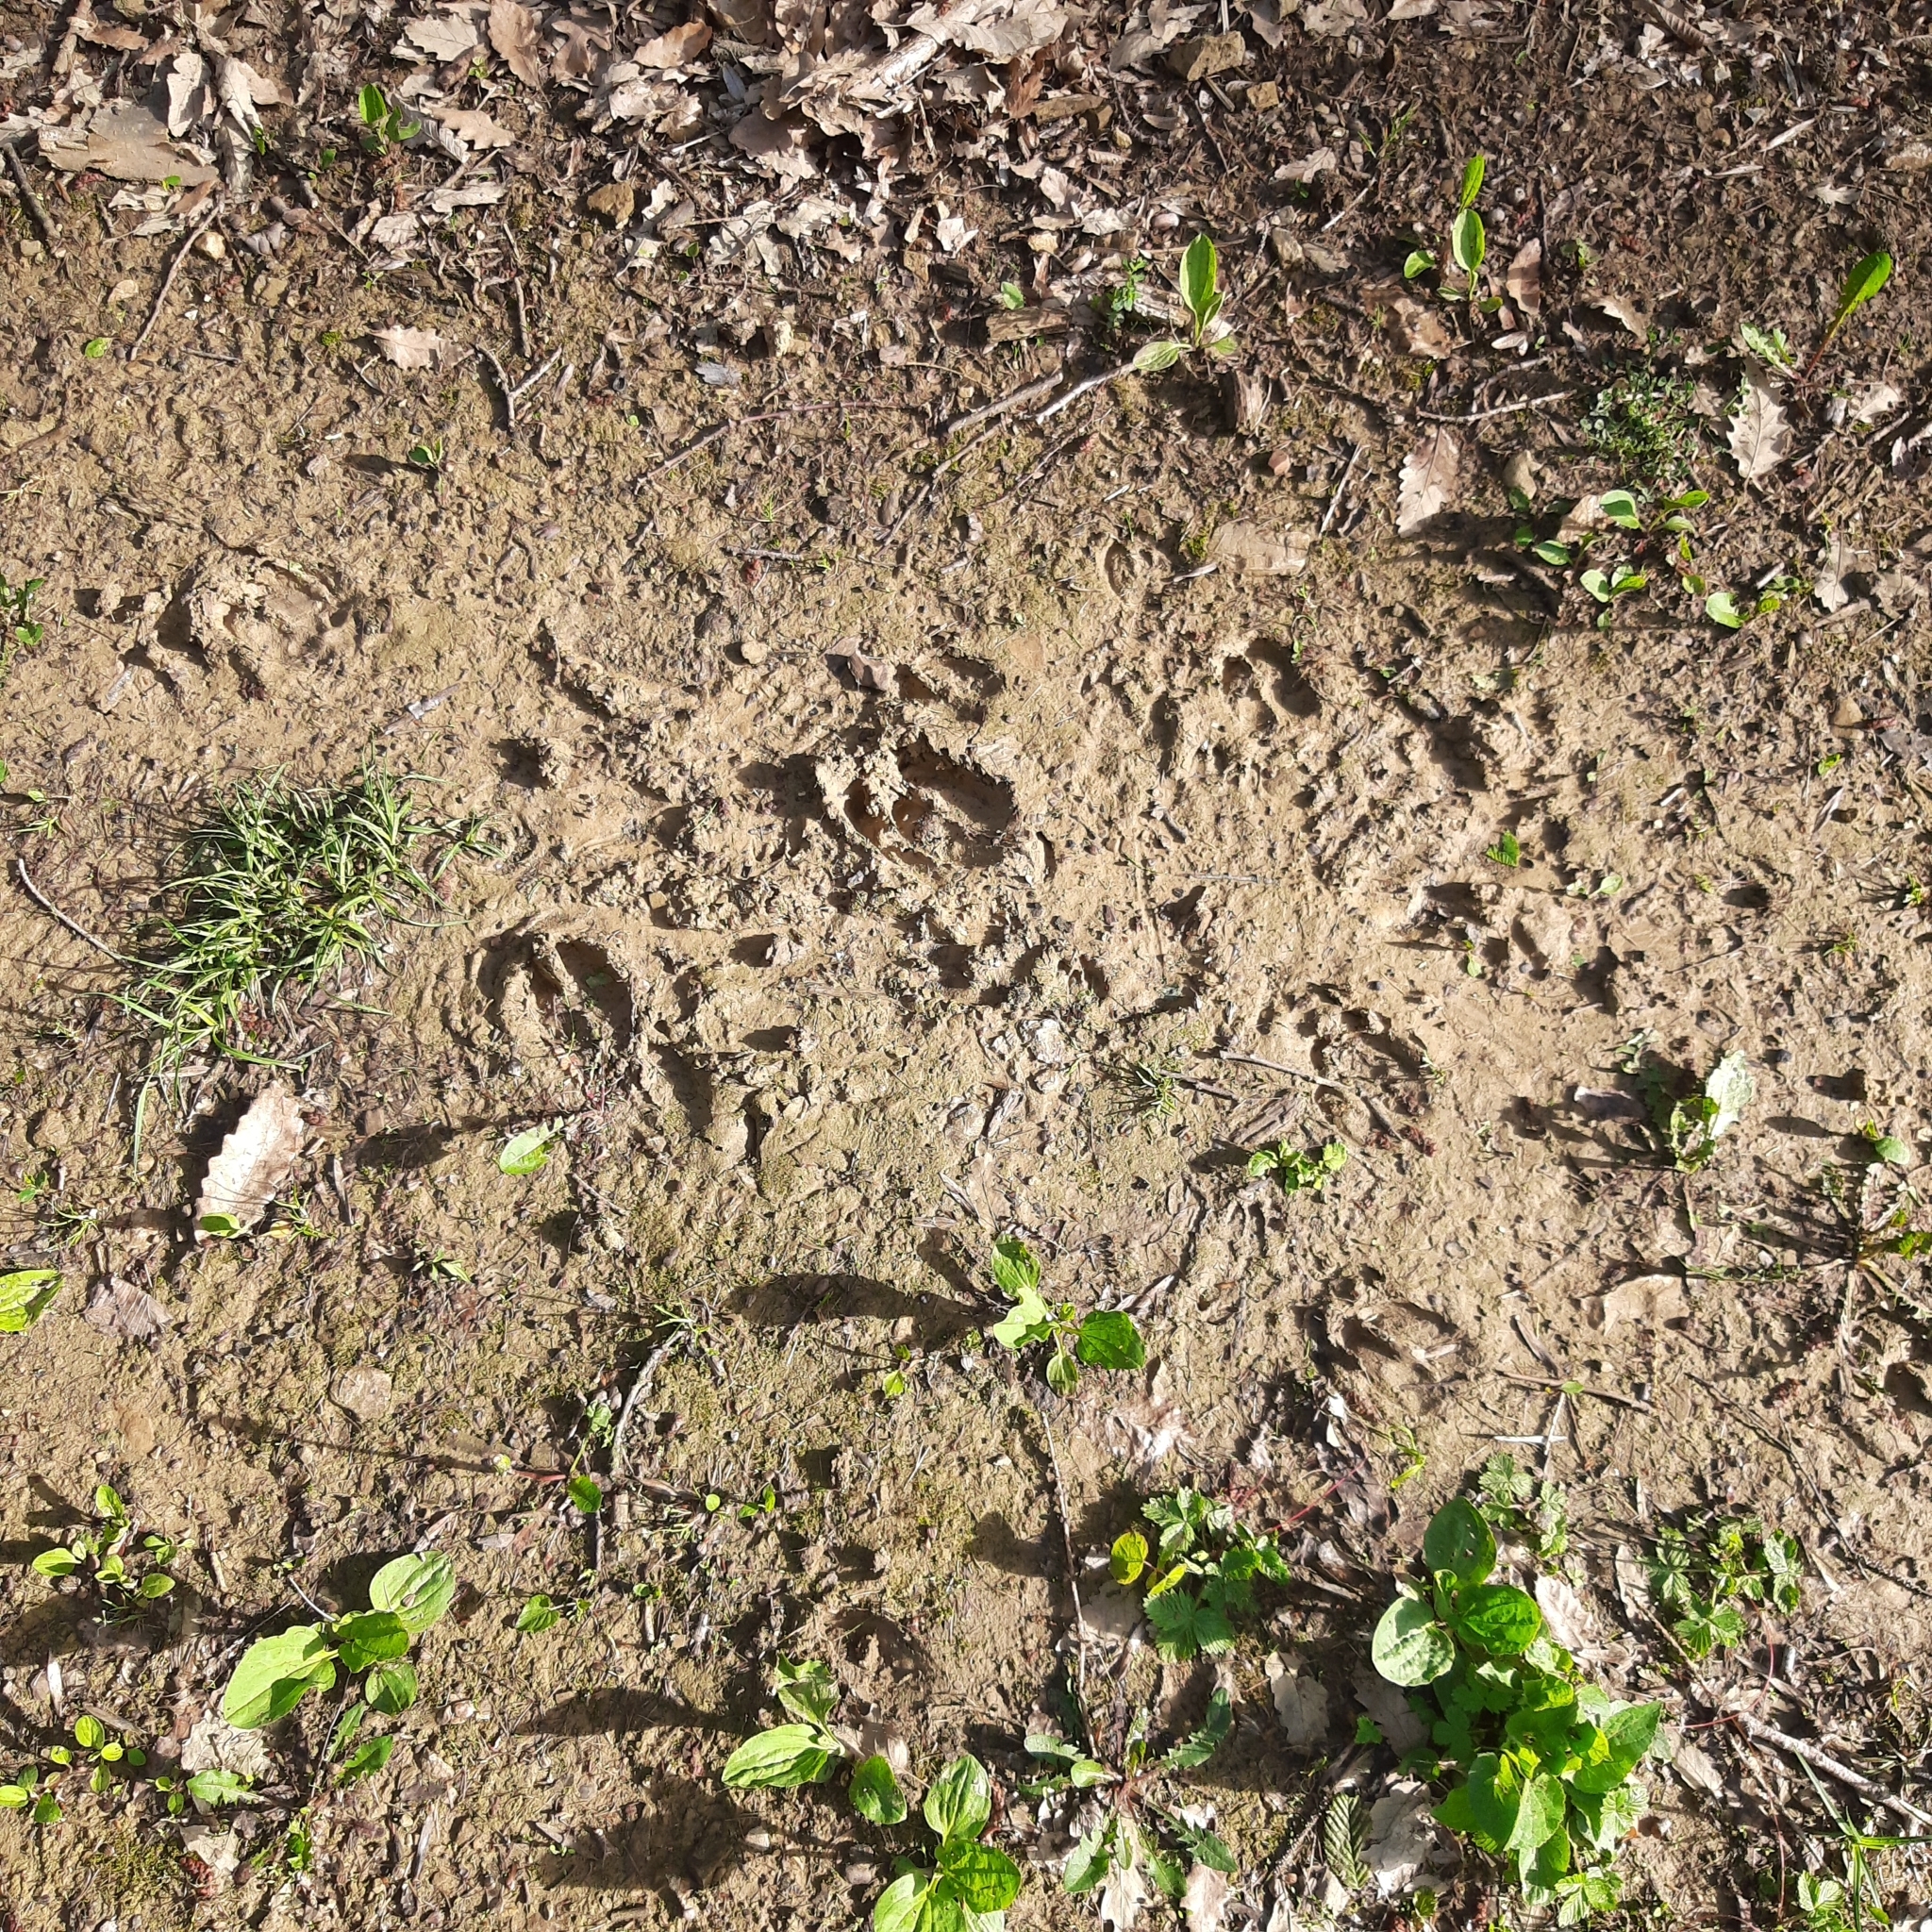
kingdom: Animalia
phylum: Chordata
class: Mammalia
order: Artiodactyla
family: Suidae
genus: Sus
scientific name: Sus scrofa
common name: Wild boar
